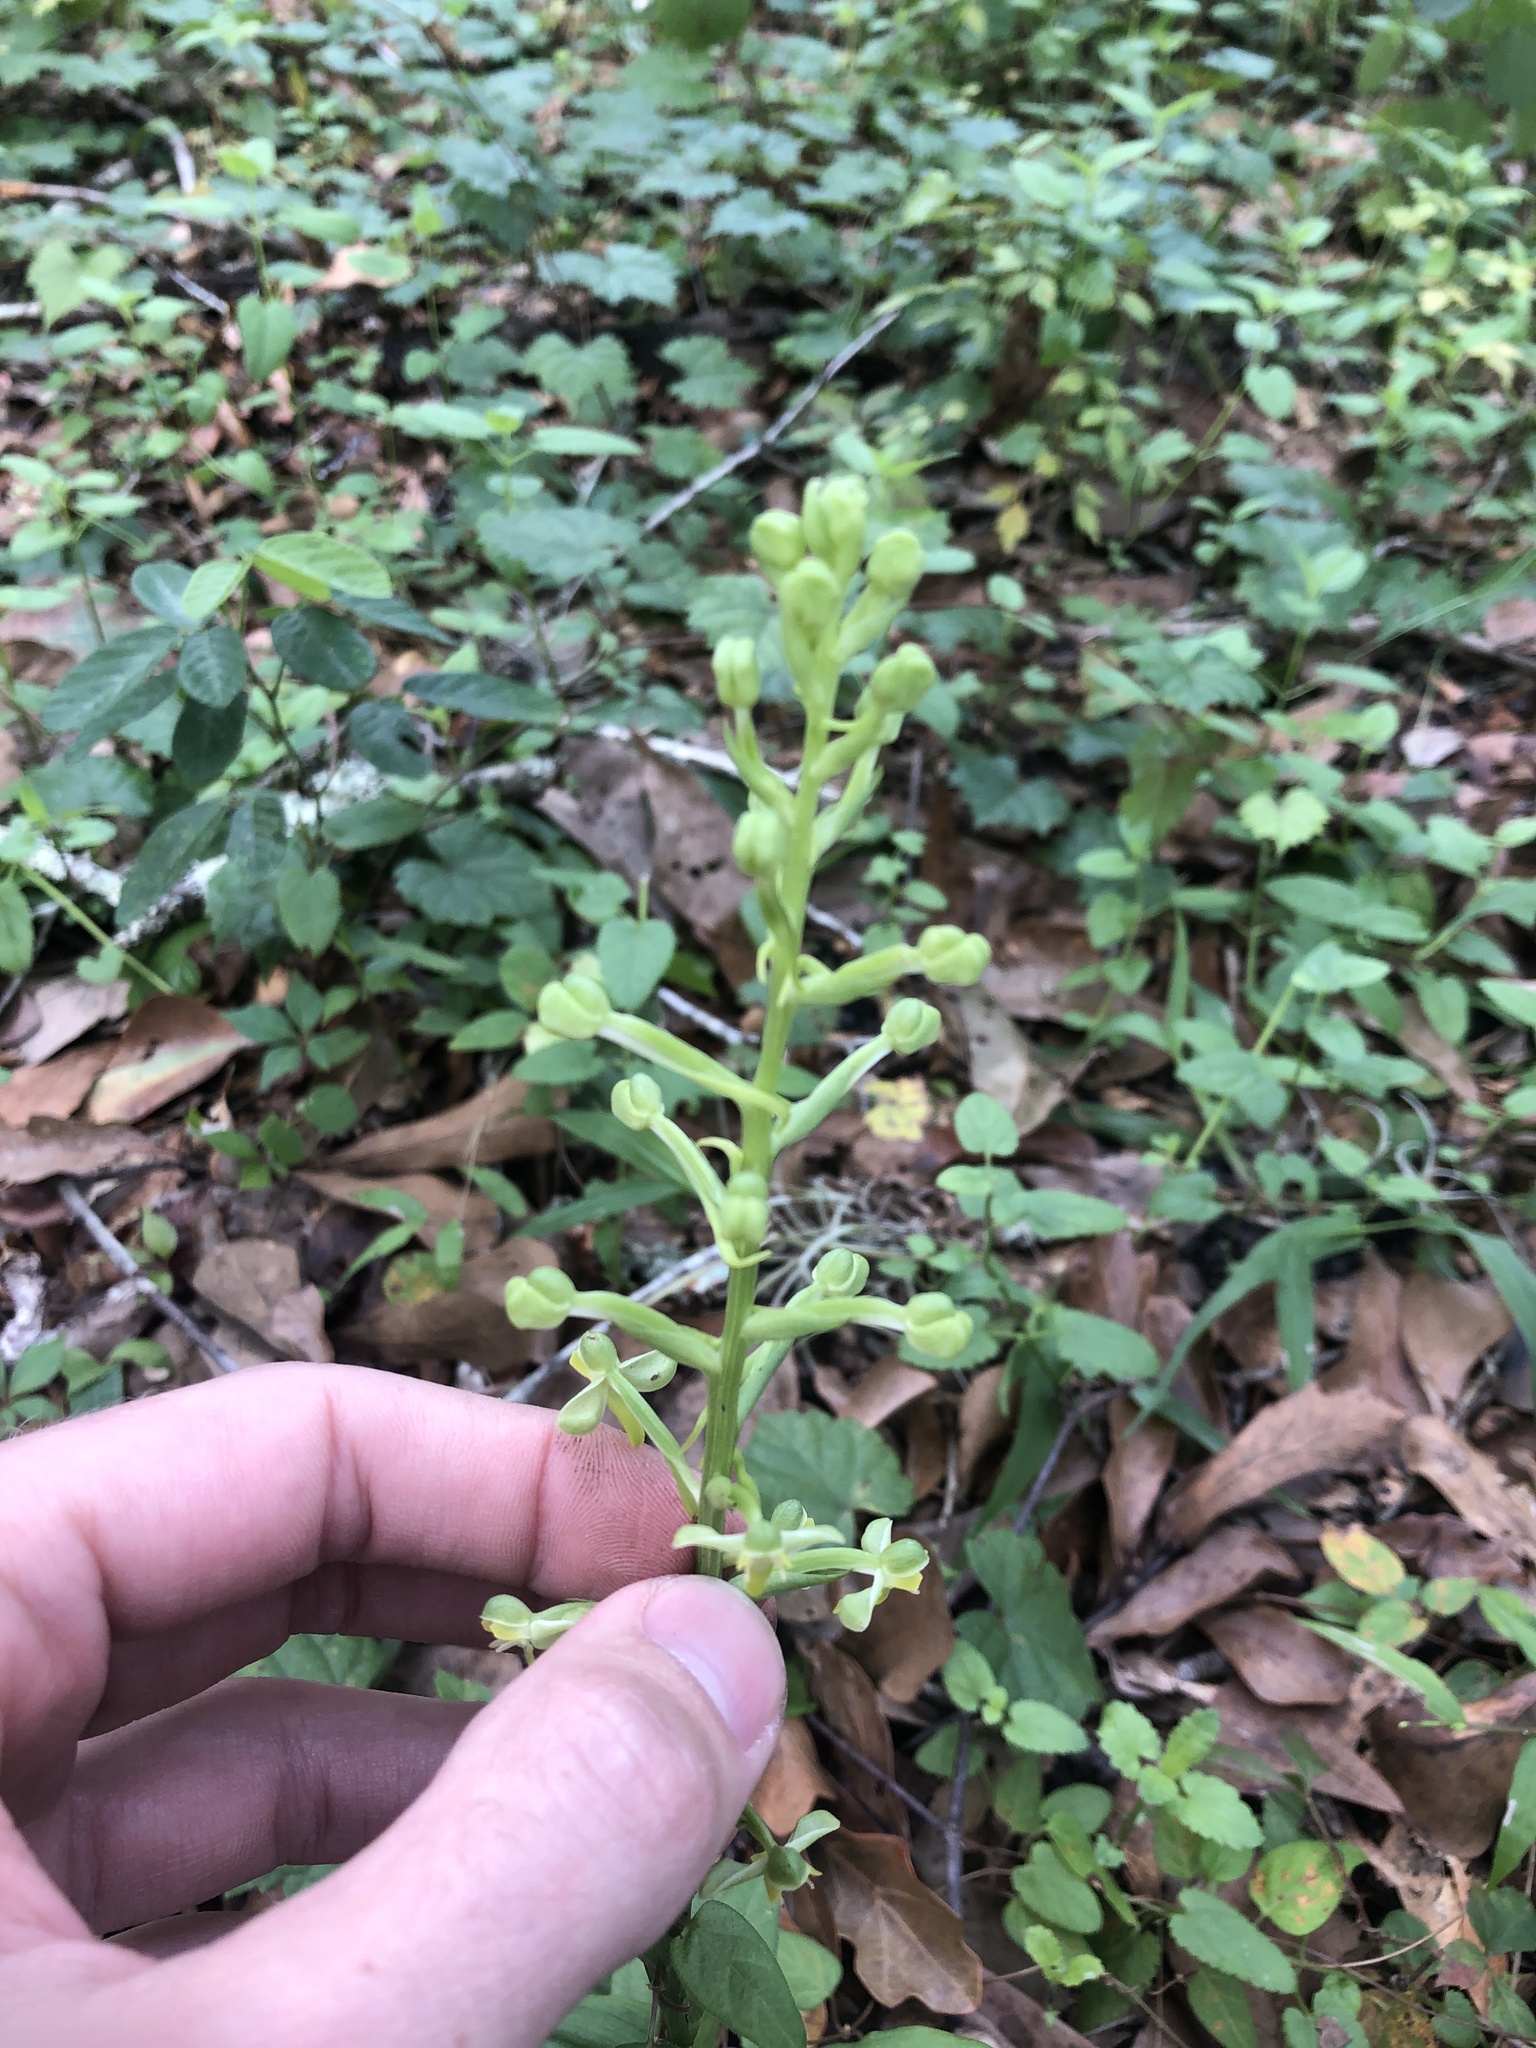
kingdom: Plantae
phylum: Tracheophyta
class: Liliopsida
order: Asparagales
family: Orchidaceae
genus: Habenaria
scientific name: Habenaria floribunda
